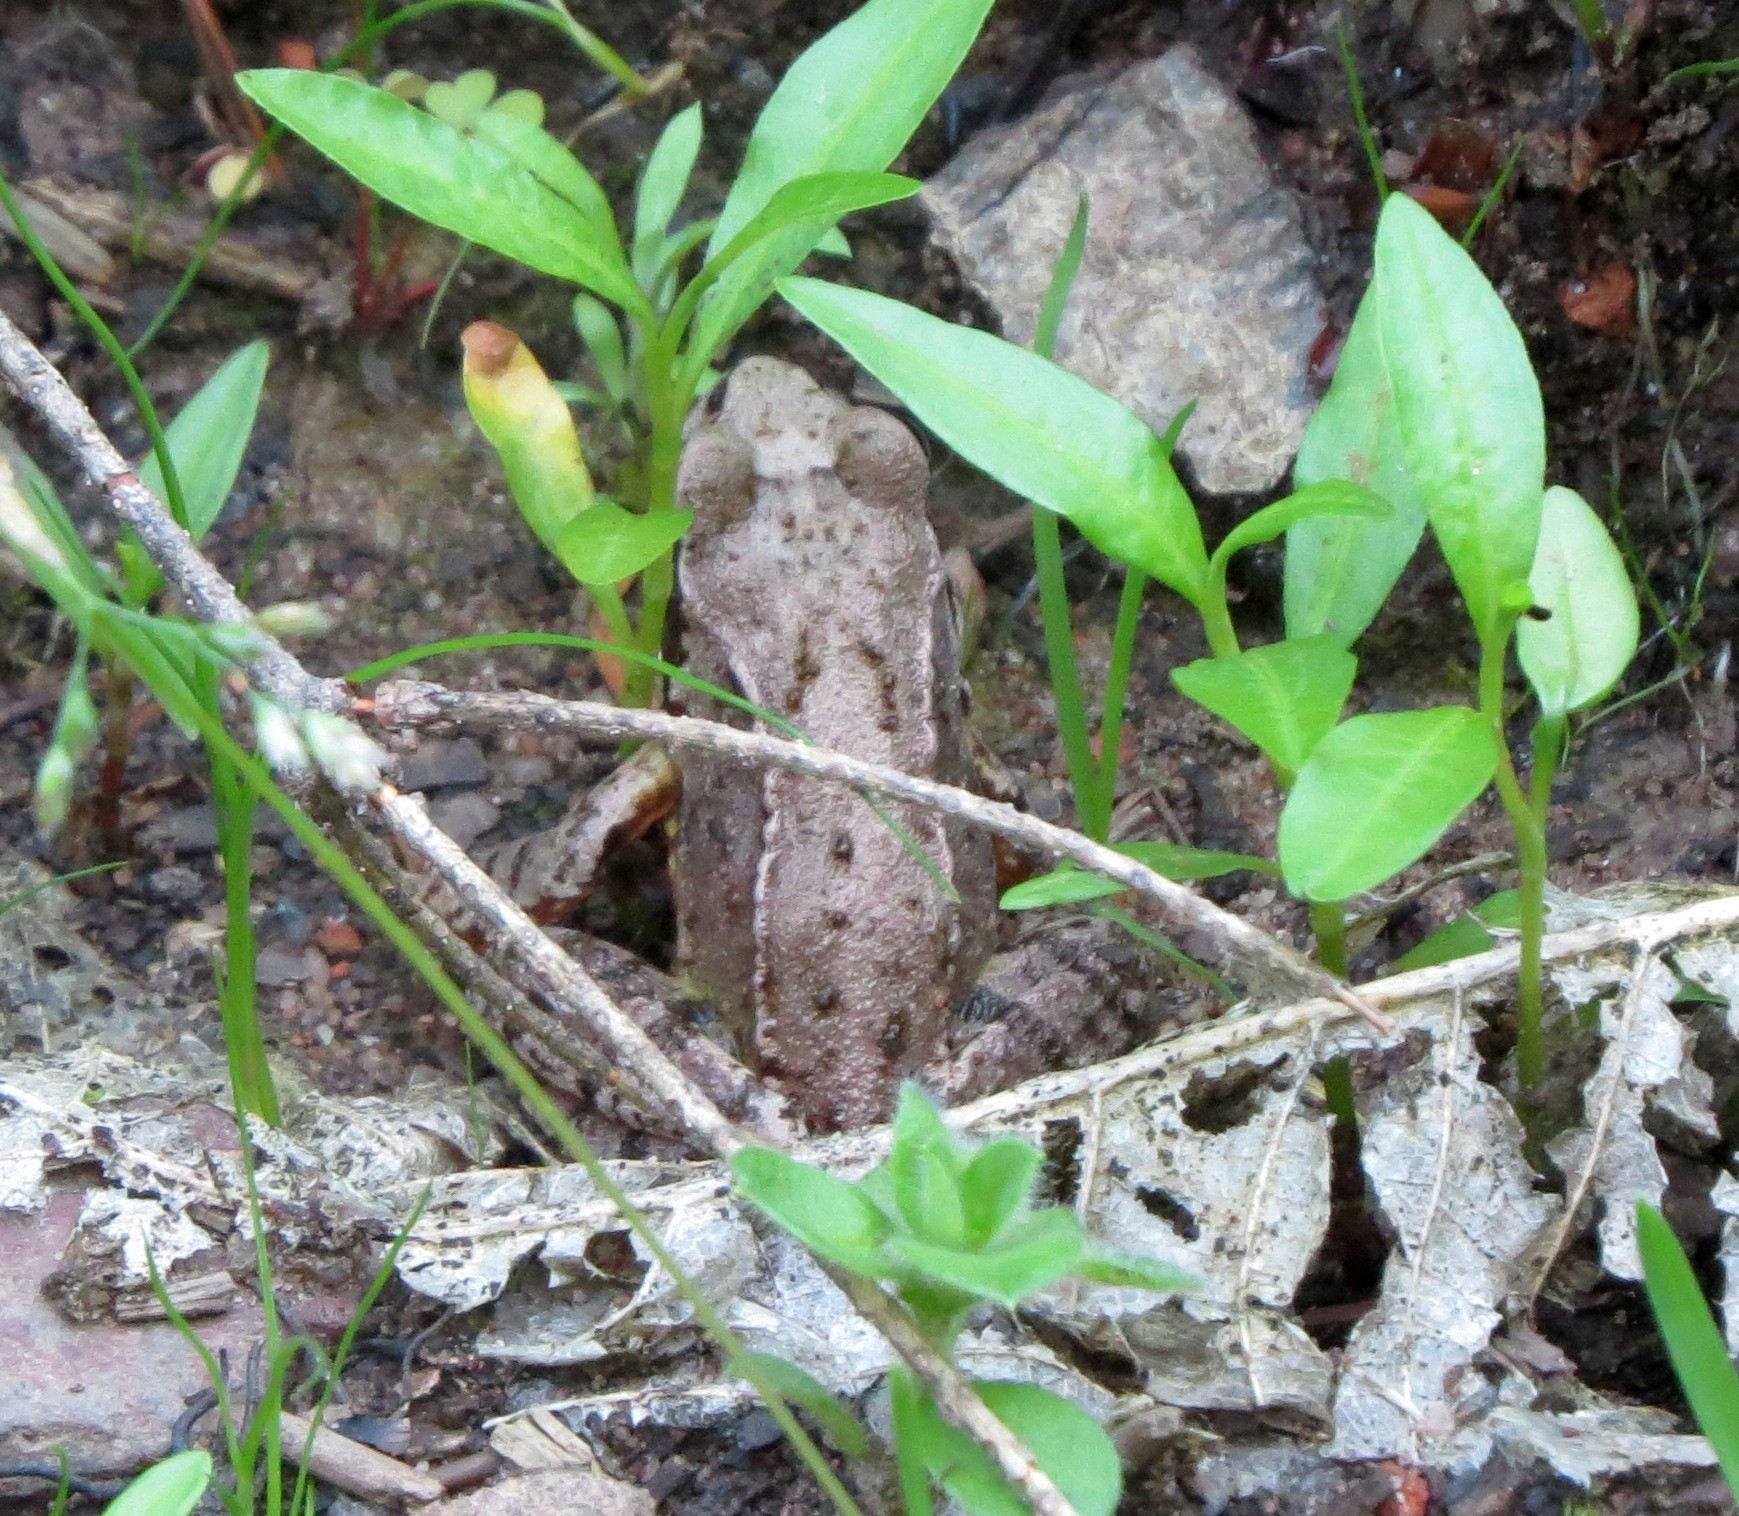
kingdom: Animalia
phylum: Chordata
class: Amphibia
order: Anura
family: Ranidae
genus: Rana
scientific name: Rana temporaria
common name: Common frog
